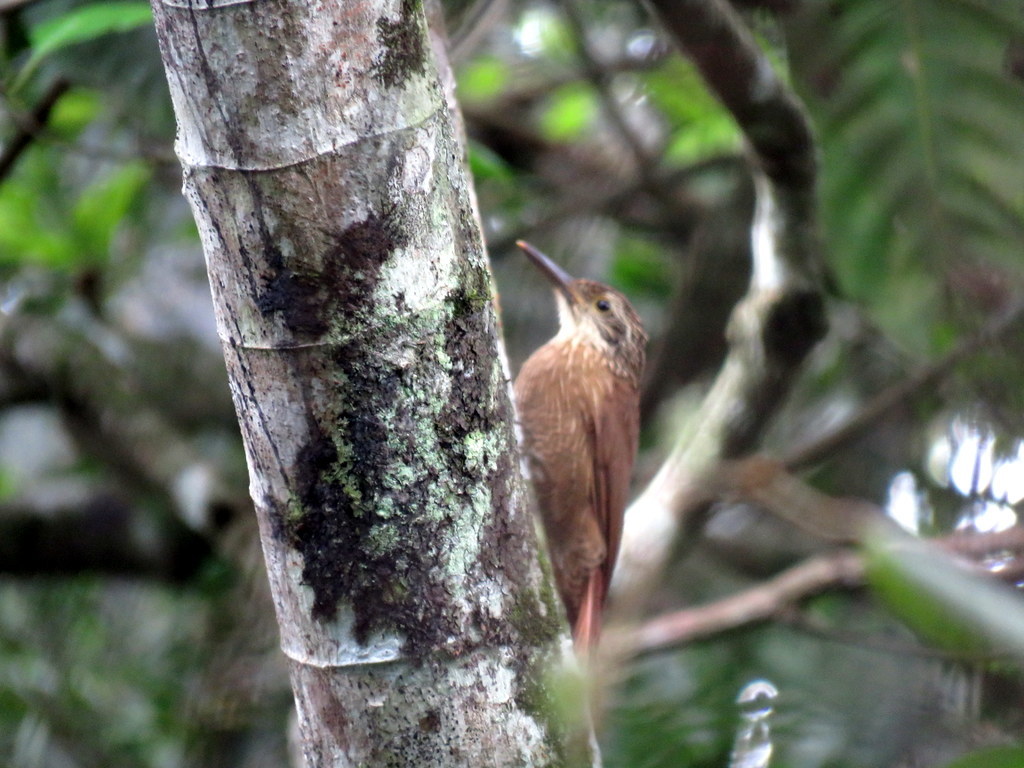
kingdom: Animalia
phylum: Chordata
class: Aves
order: Passeriformes
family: Furnariidae
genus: Dendrocolaptes
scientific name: Dendrocolaptes platyrostris
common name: Planalto woodcreeper
